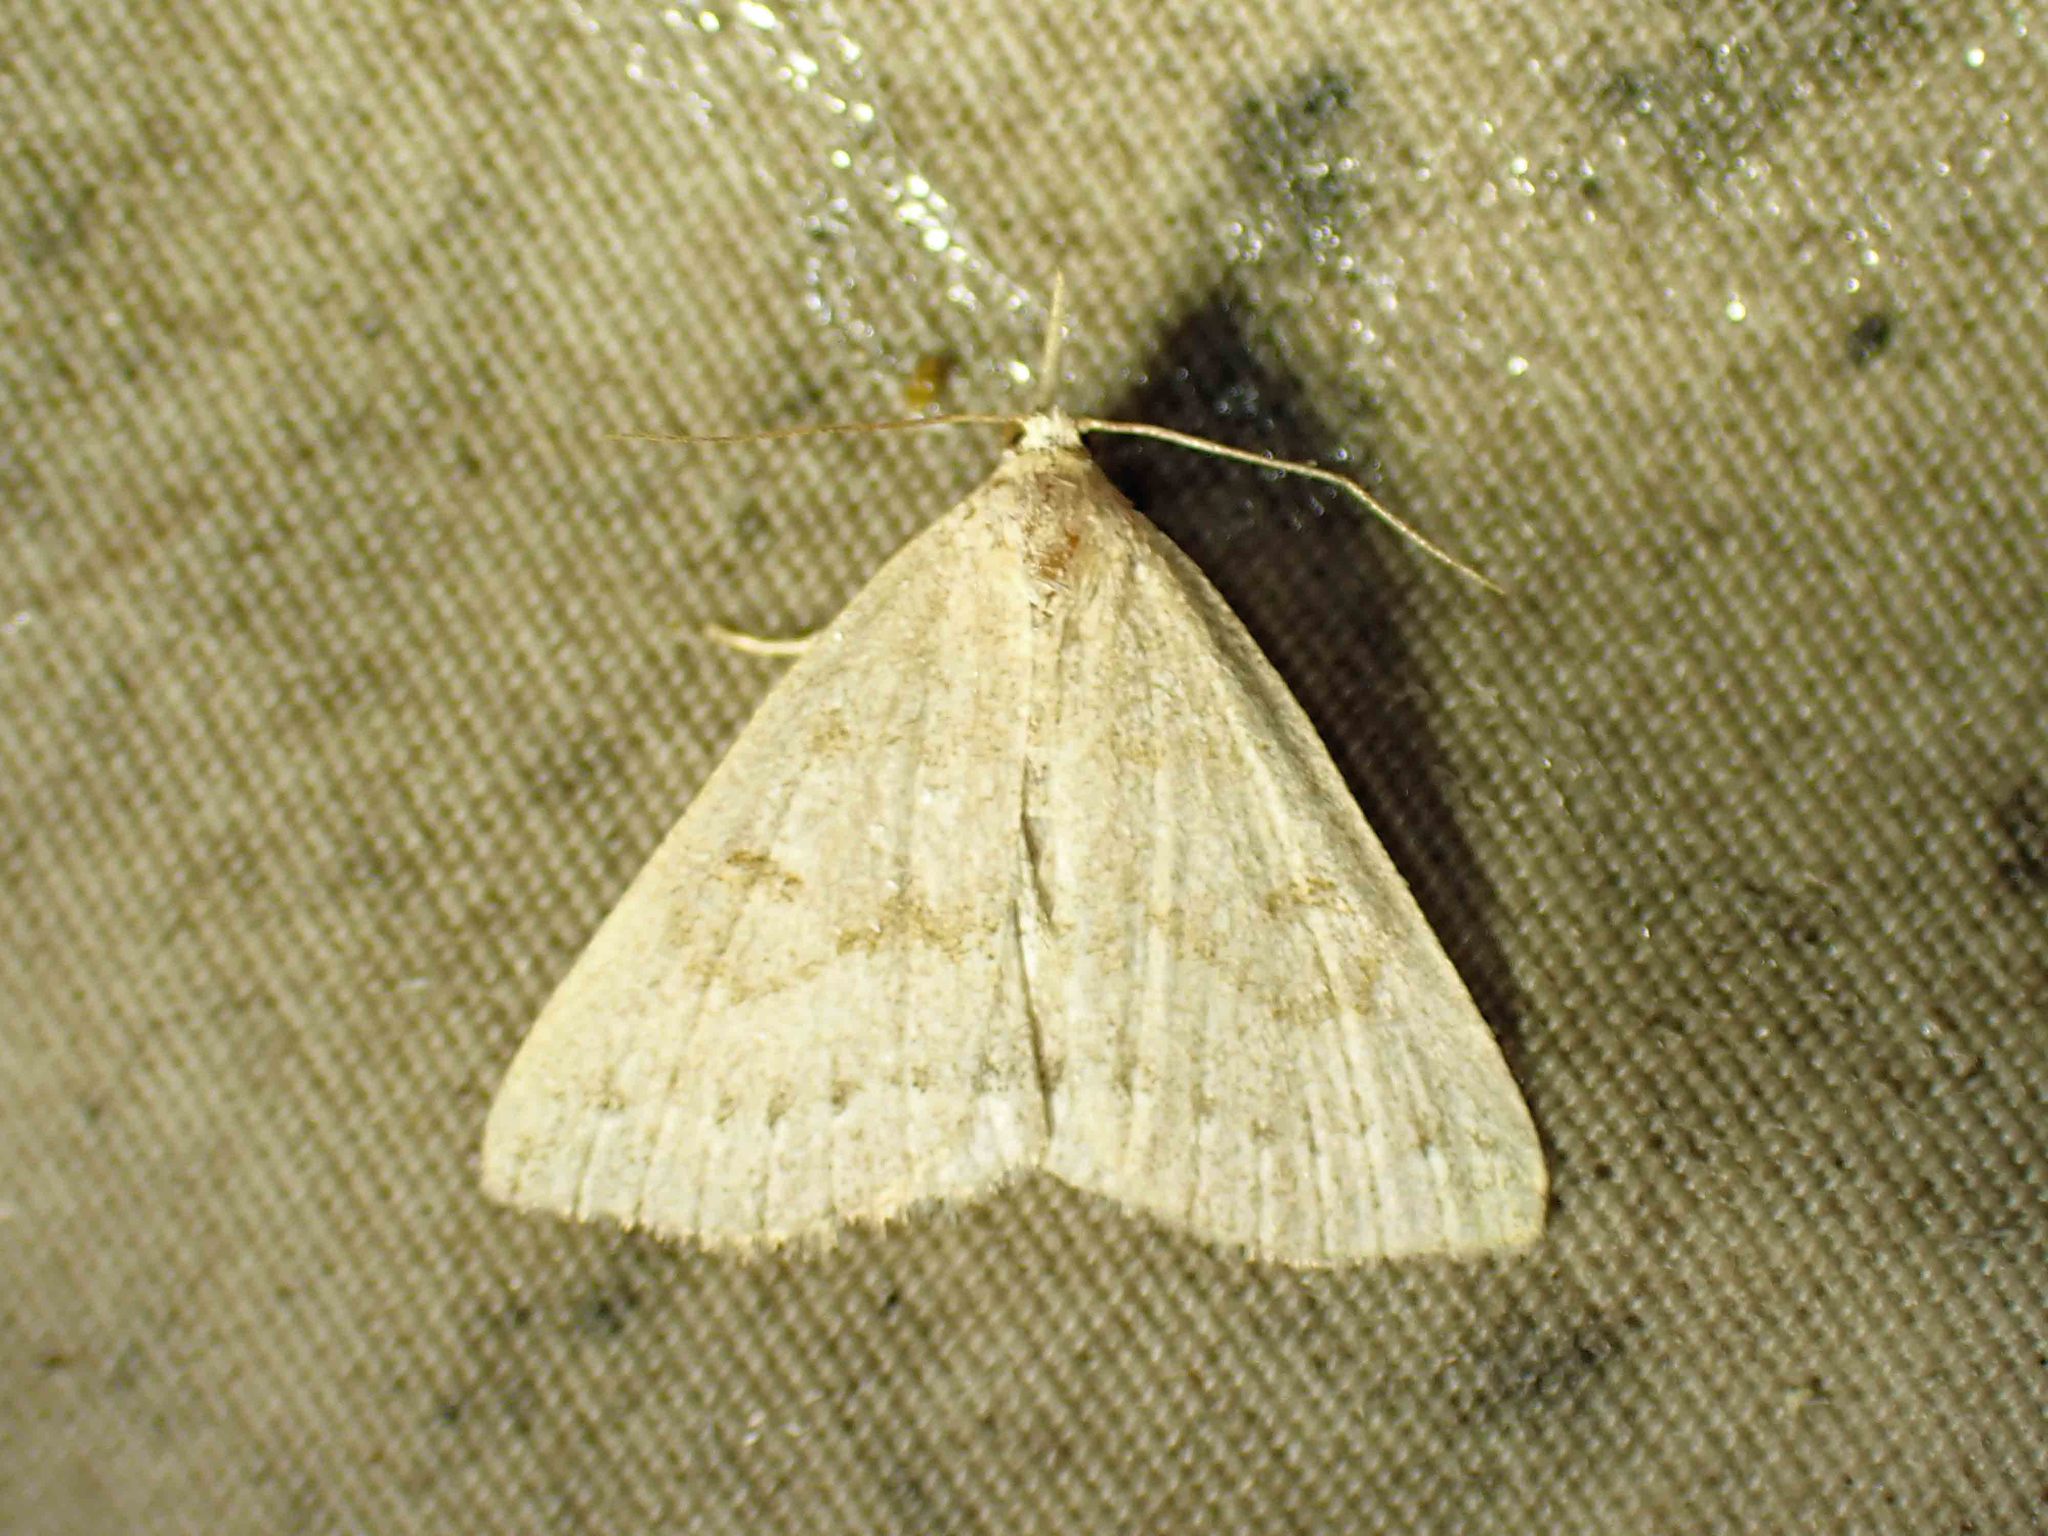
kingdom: Animalia
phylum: Arthropoda
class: Insecta
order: Lepidoptera
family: Erebidae
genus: Macrochilo
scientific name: Macrochilo morbidalis
